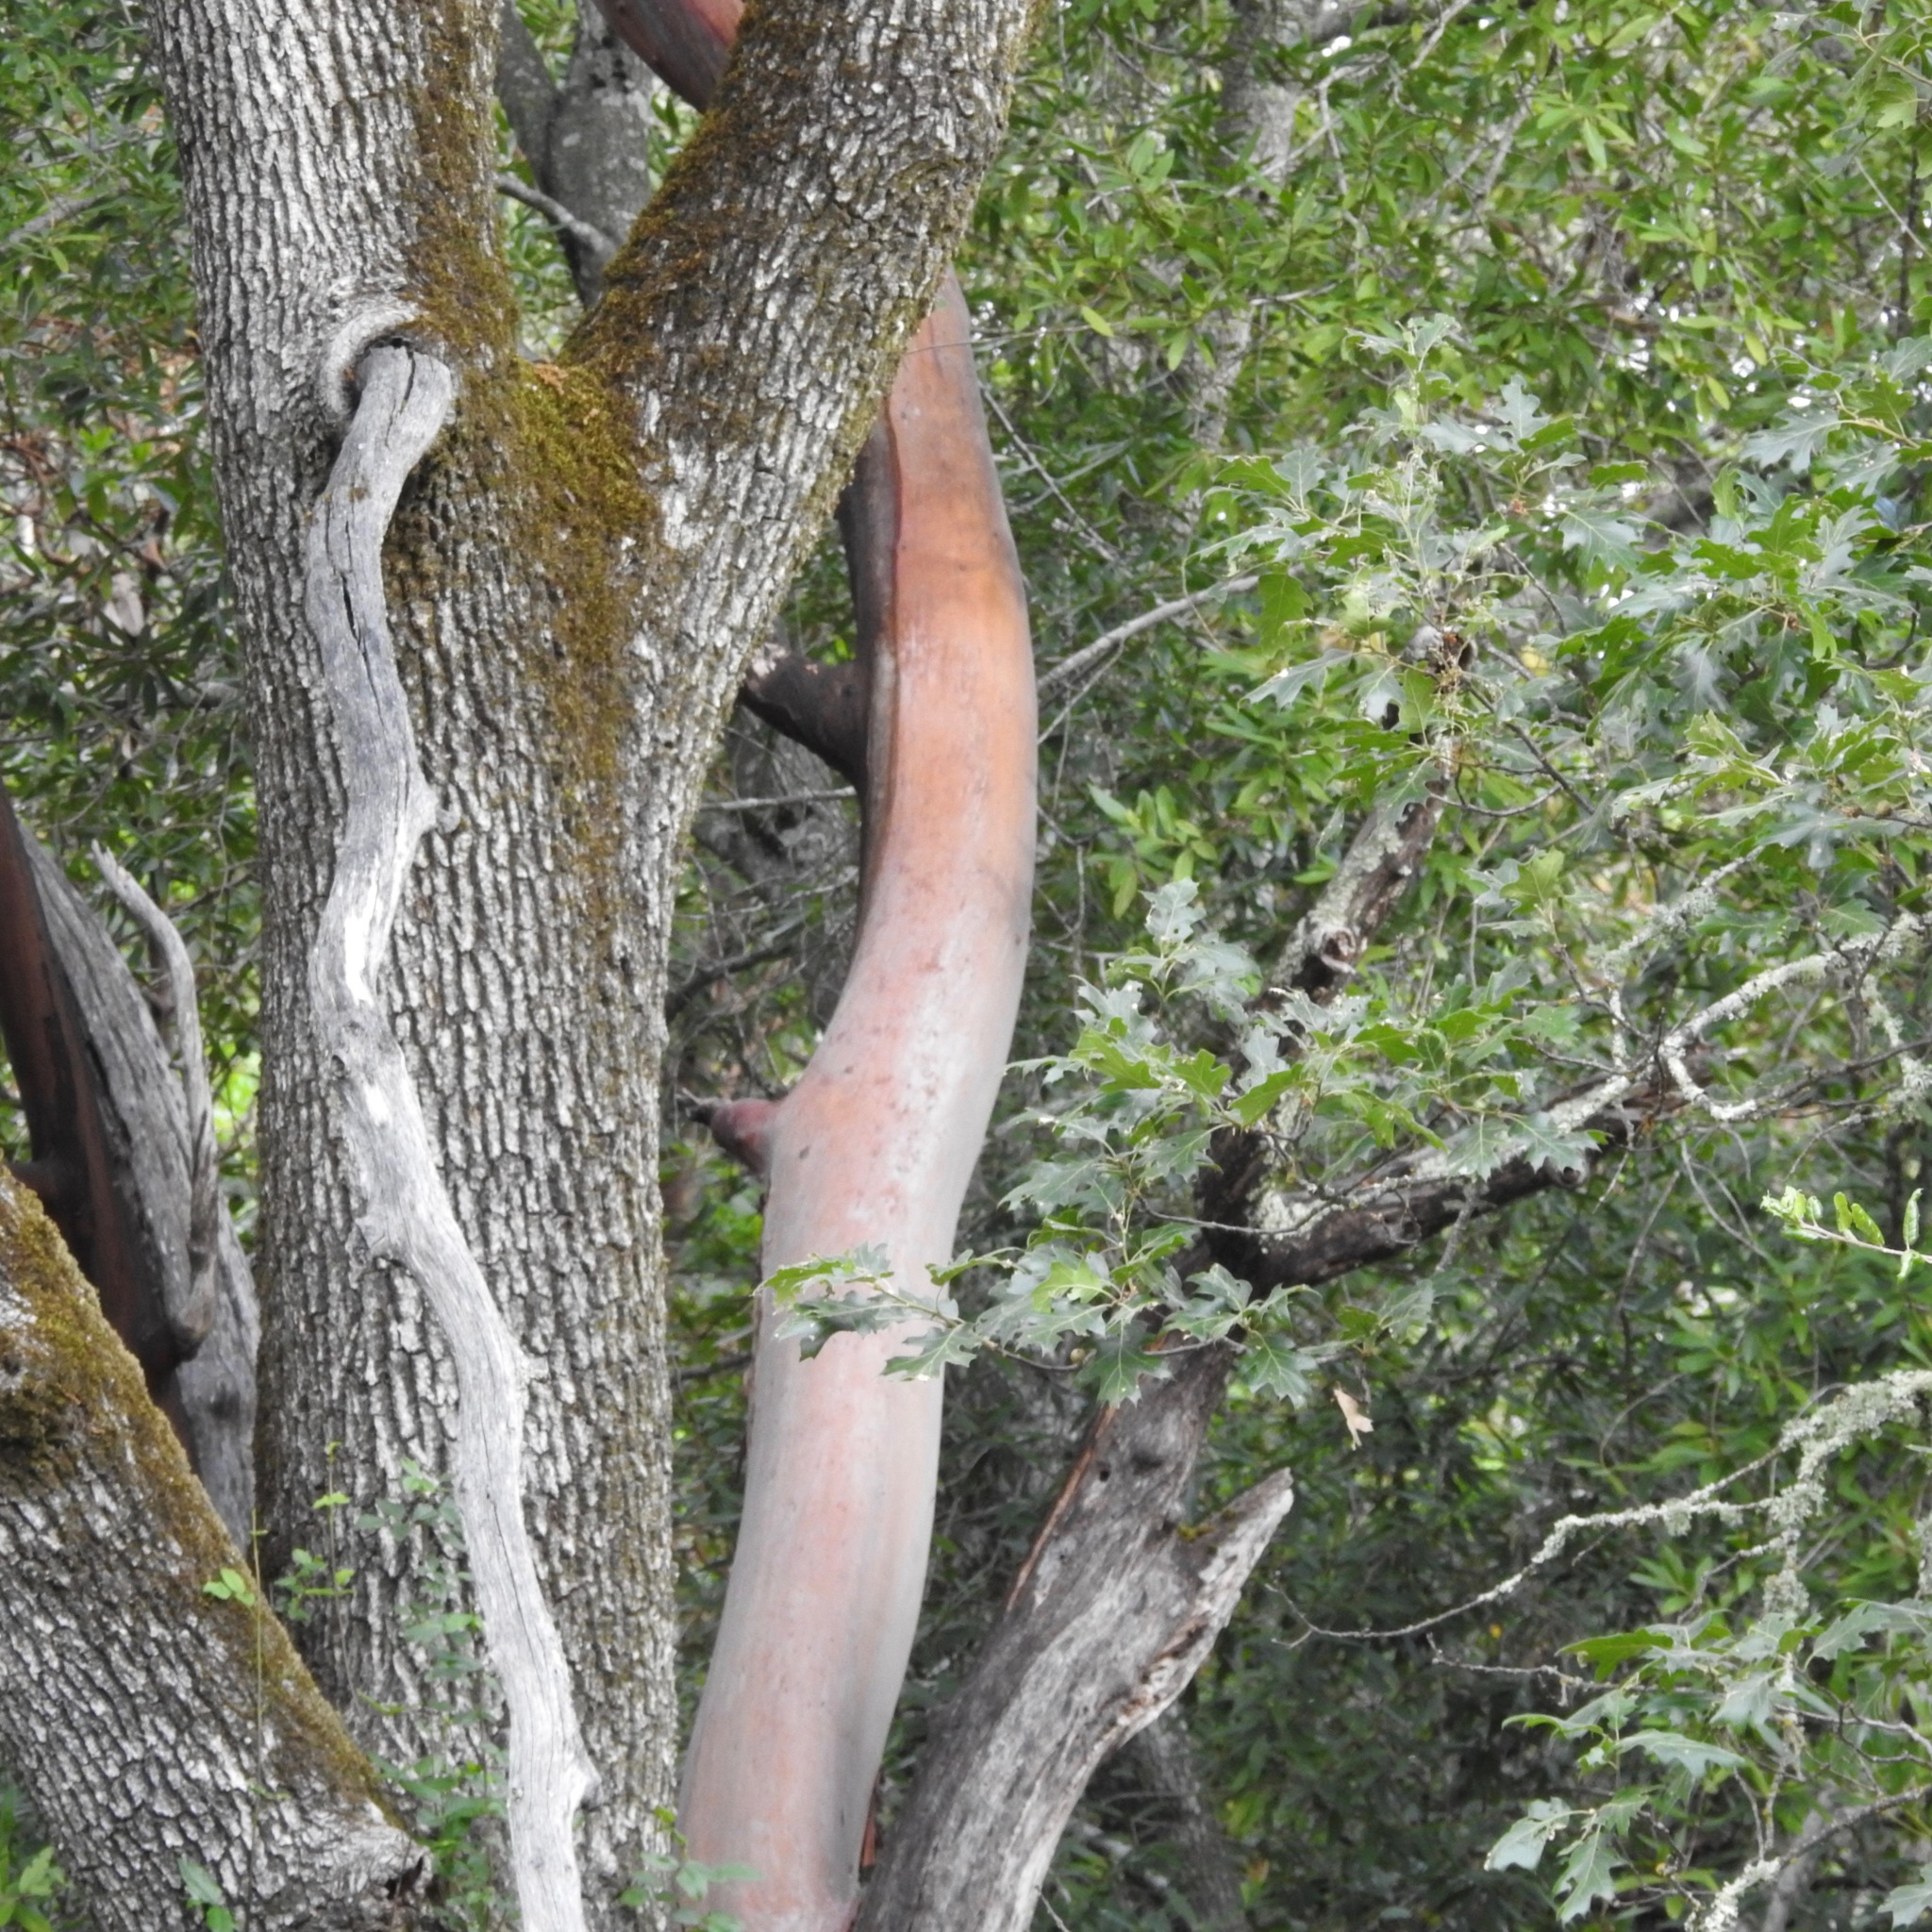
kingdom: Plantae
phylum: Tracheophyta
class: Magnoliopsida
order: Ericales
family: Ericaceae
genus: Arbutus
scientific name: Arbutus menziesii
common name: Pacific madrone
